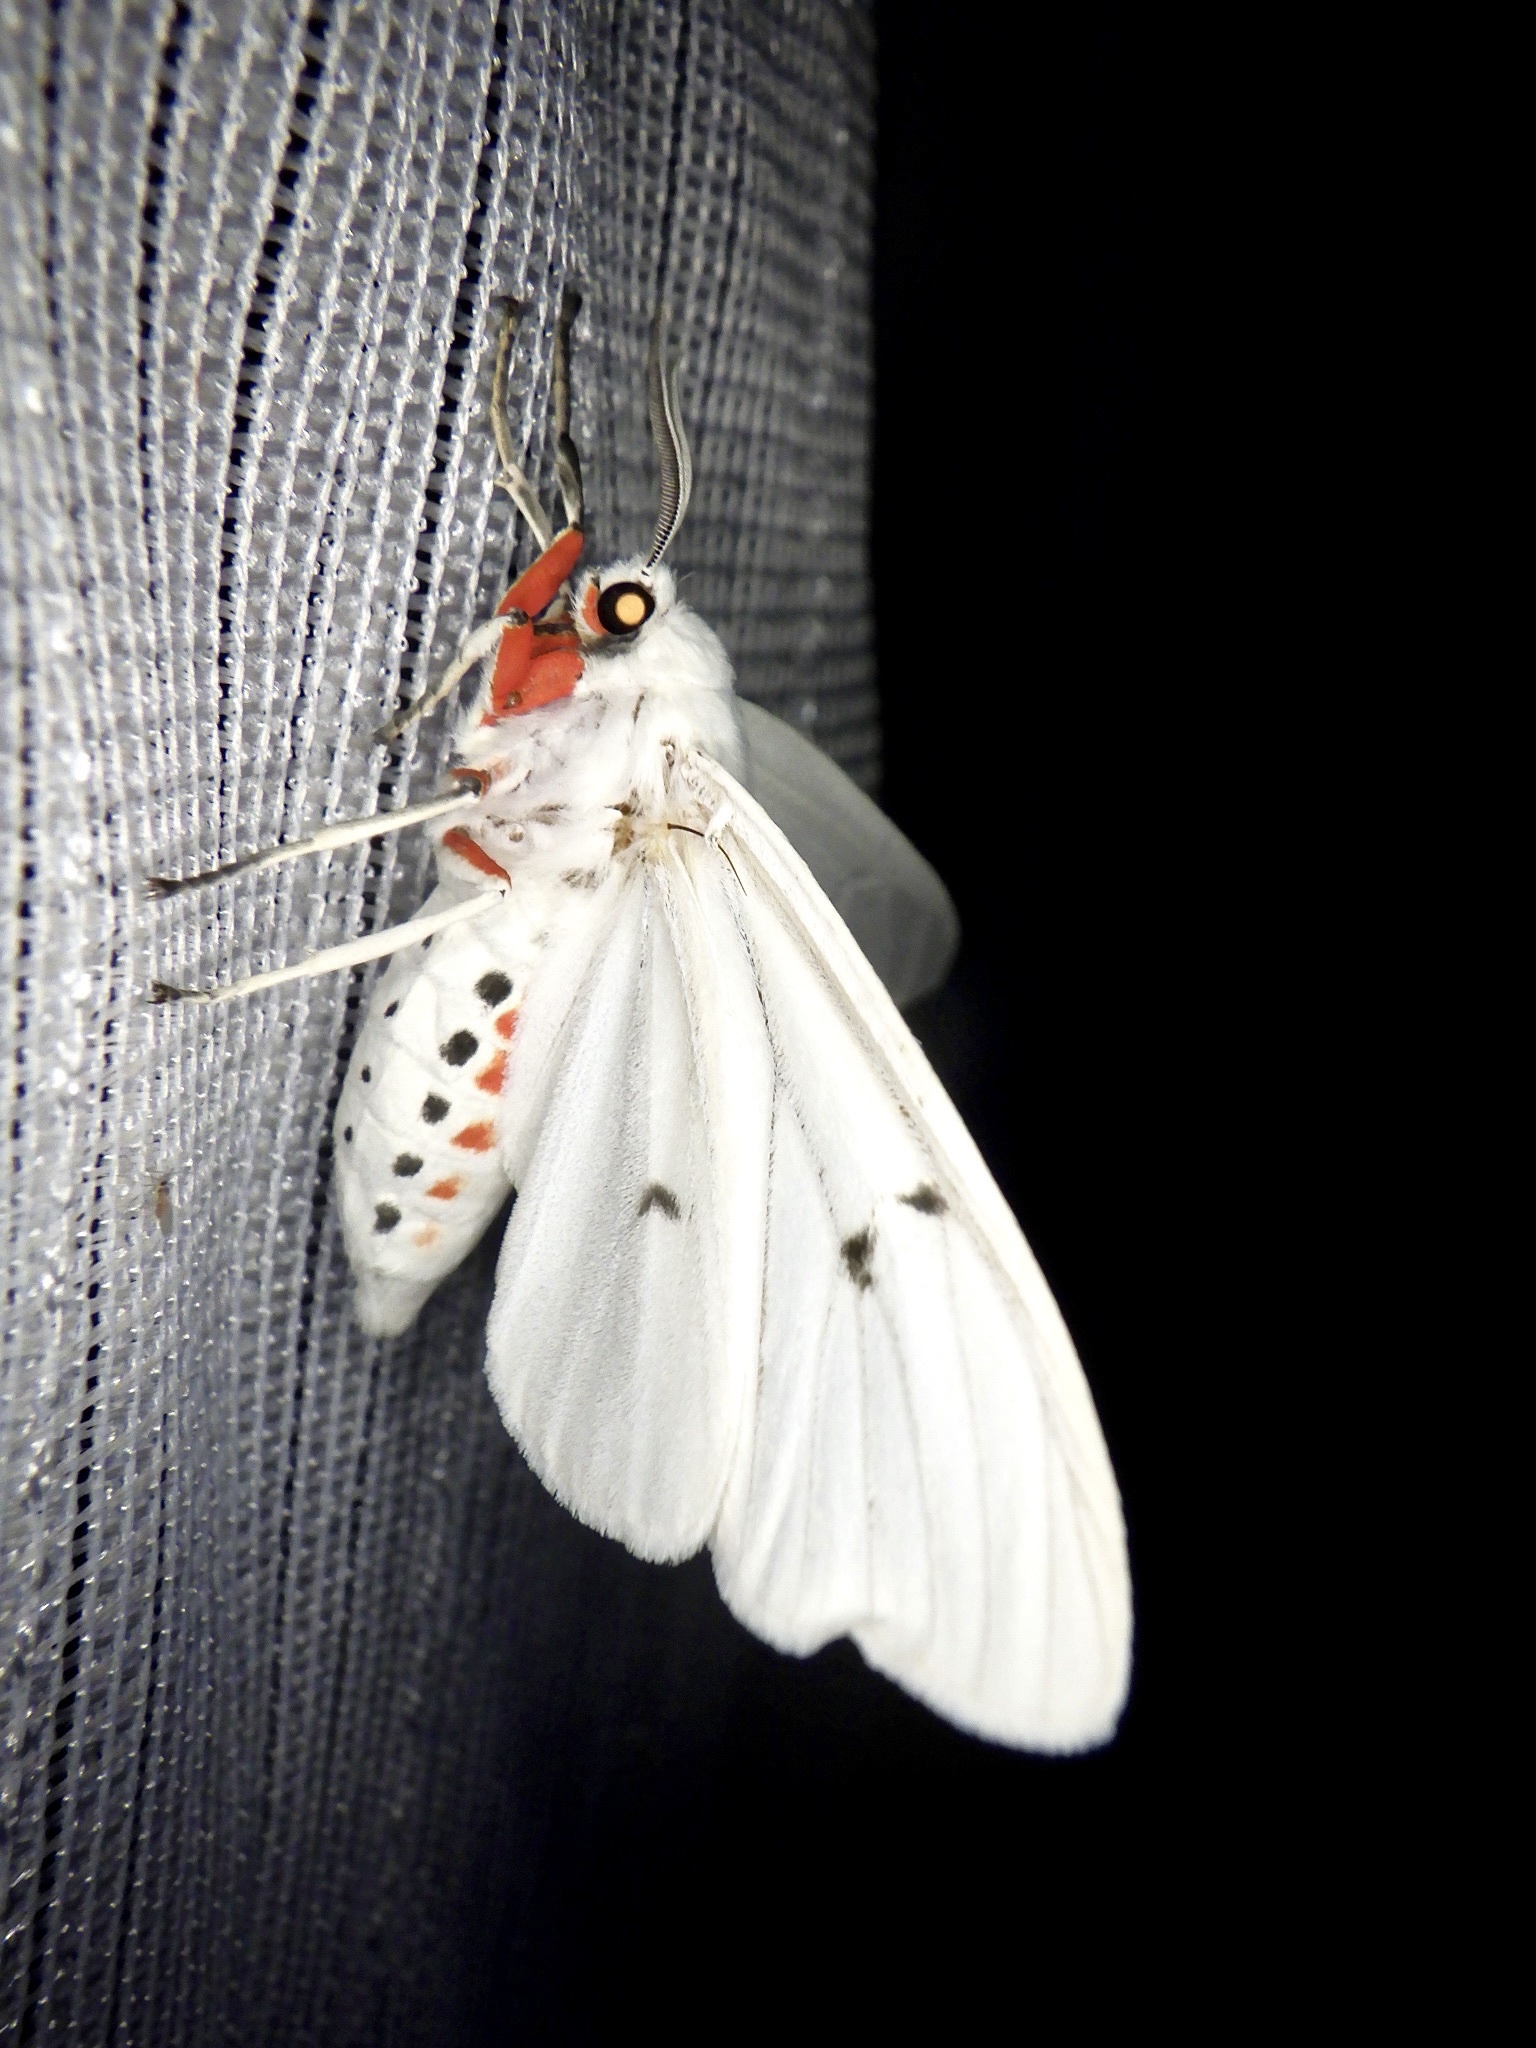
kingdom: Animalia
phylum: Arthropoda
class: Insecta
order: Lepidoptera
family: Erebidae
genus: Chionarctia
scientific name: Chionarctia nivea
